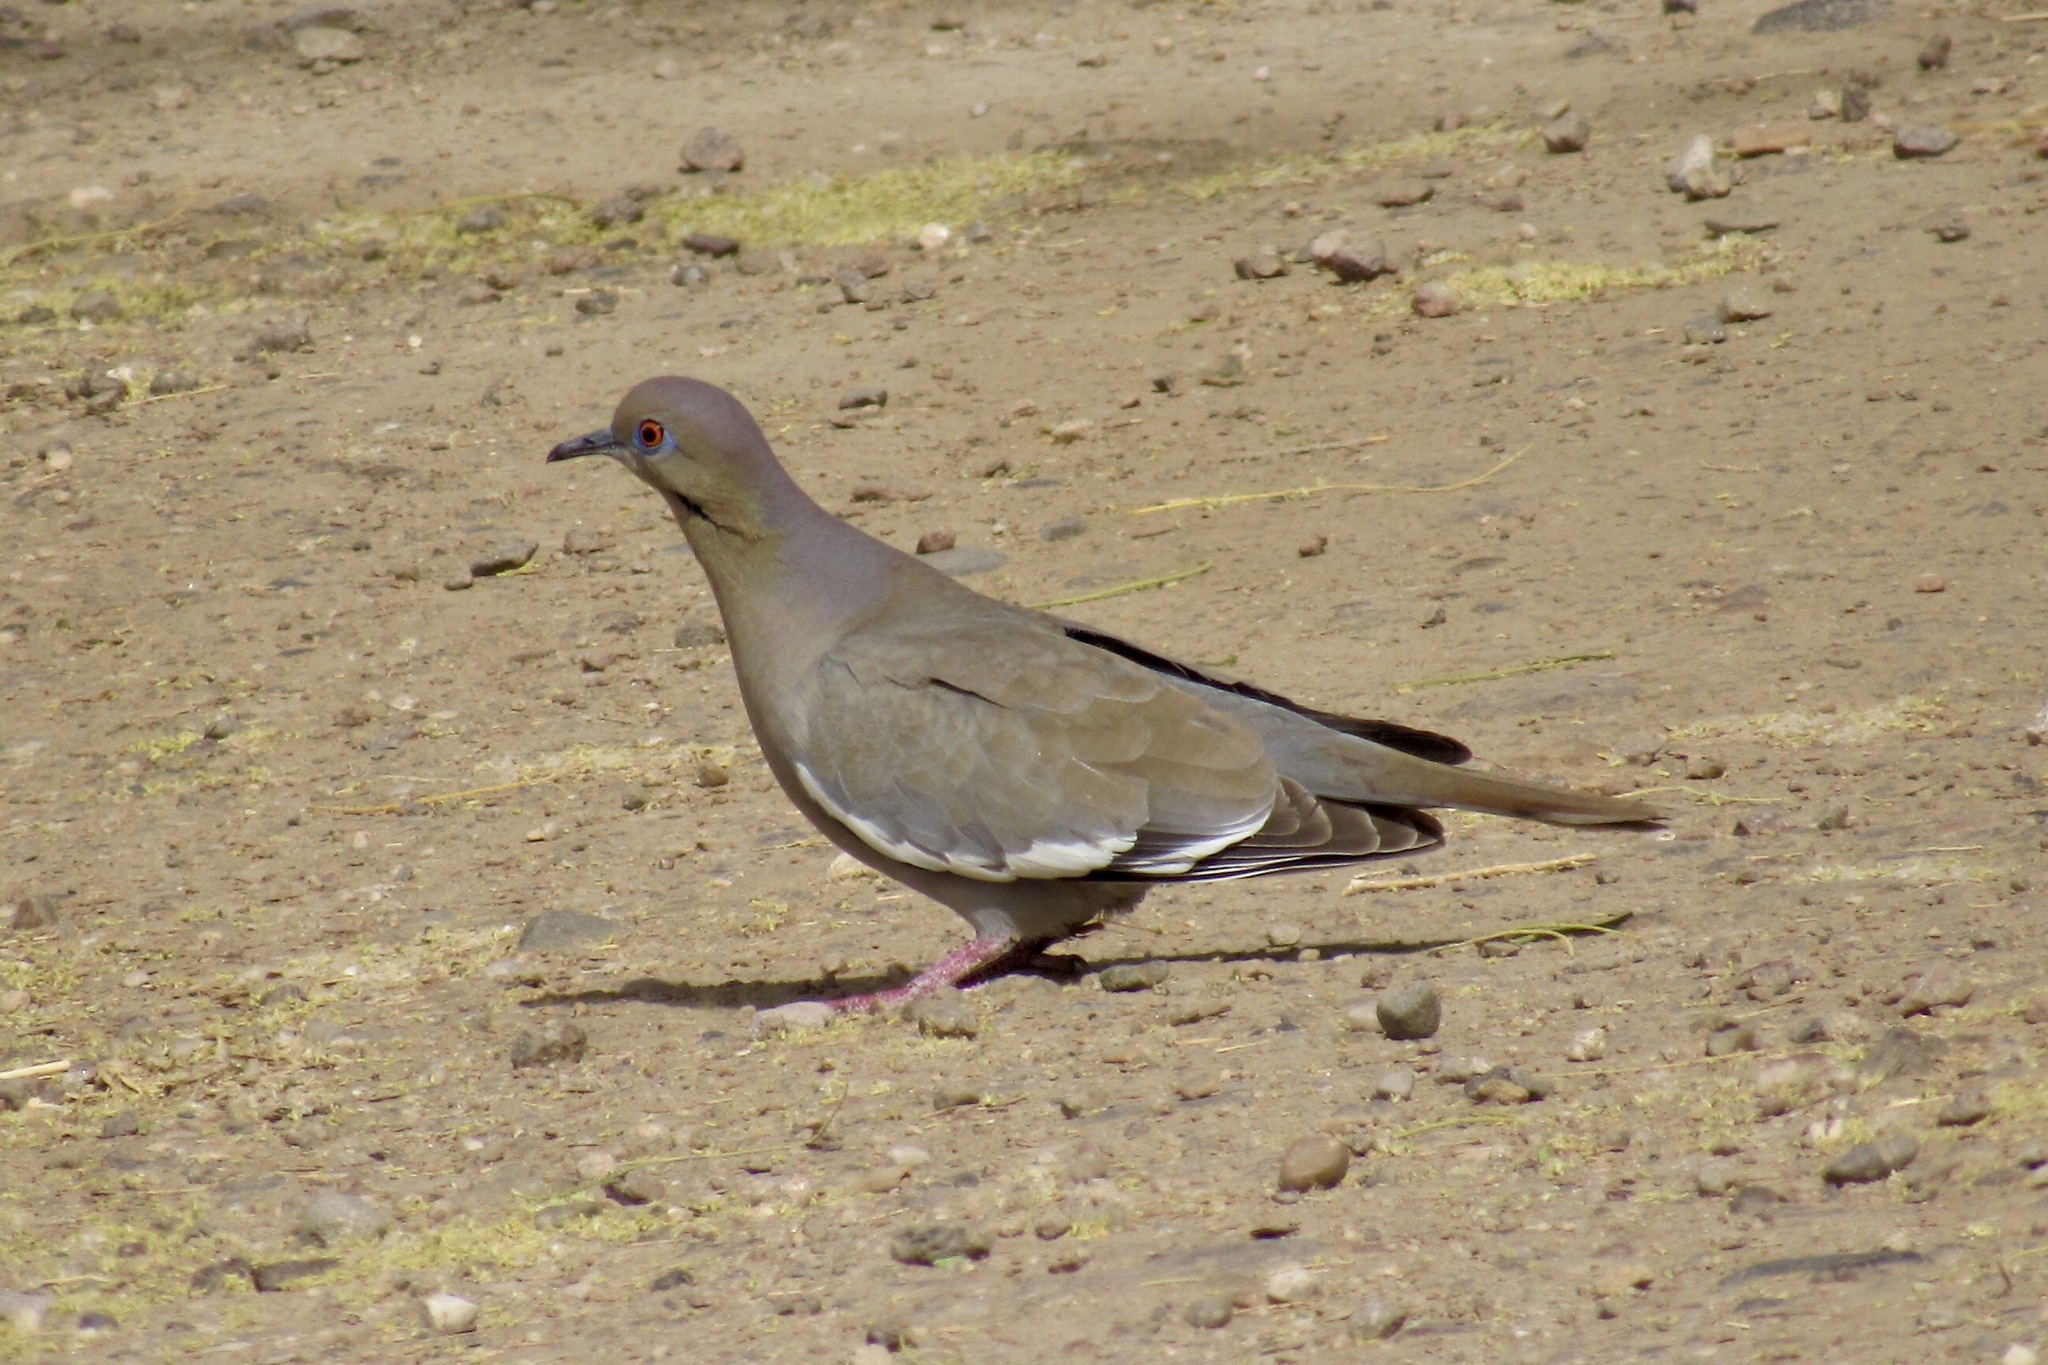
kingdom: Animalia
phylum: Chordata
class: Aves
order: Columbiformes
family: Columbidae
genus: Zenaida
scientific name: Zenaida asiatica
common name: White-winged dove
